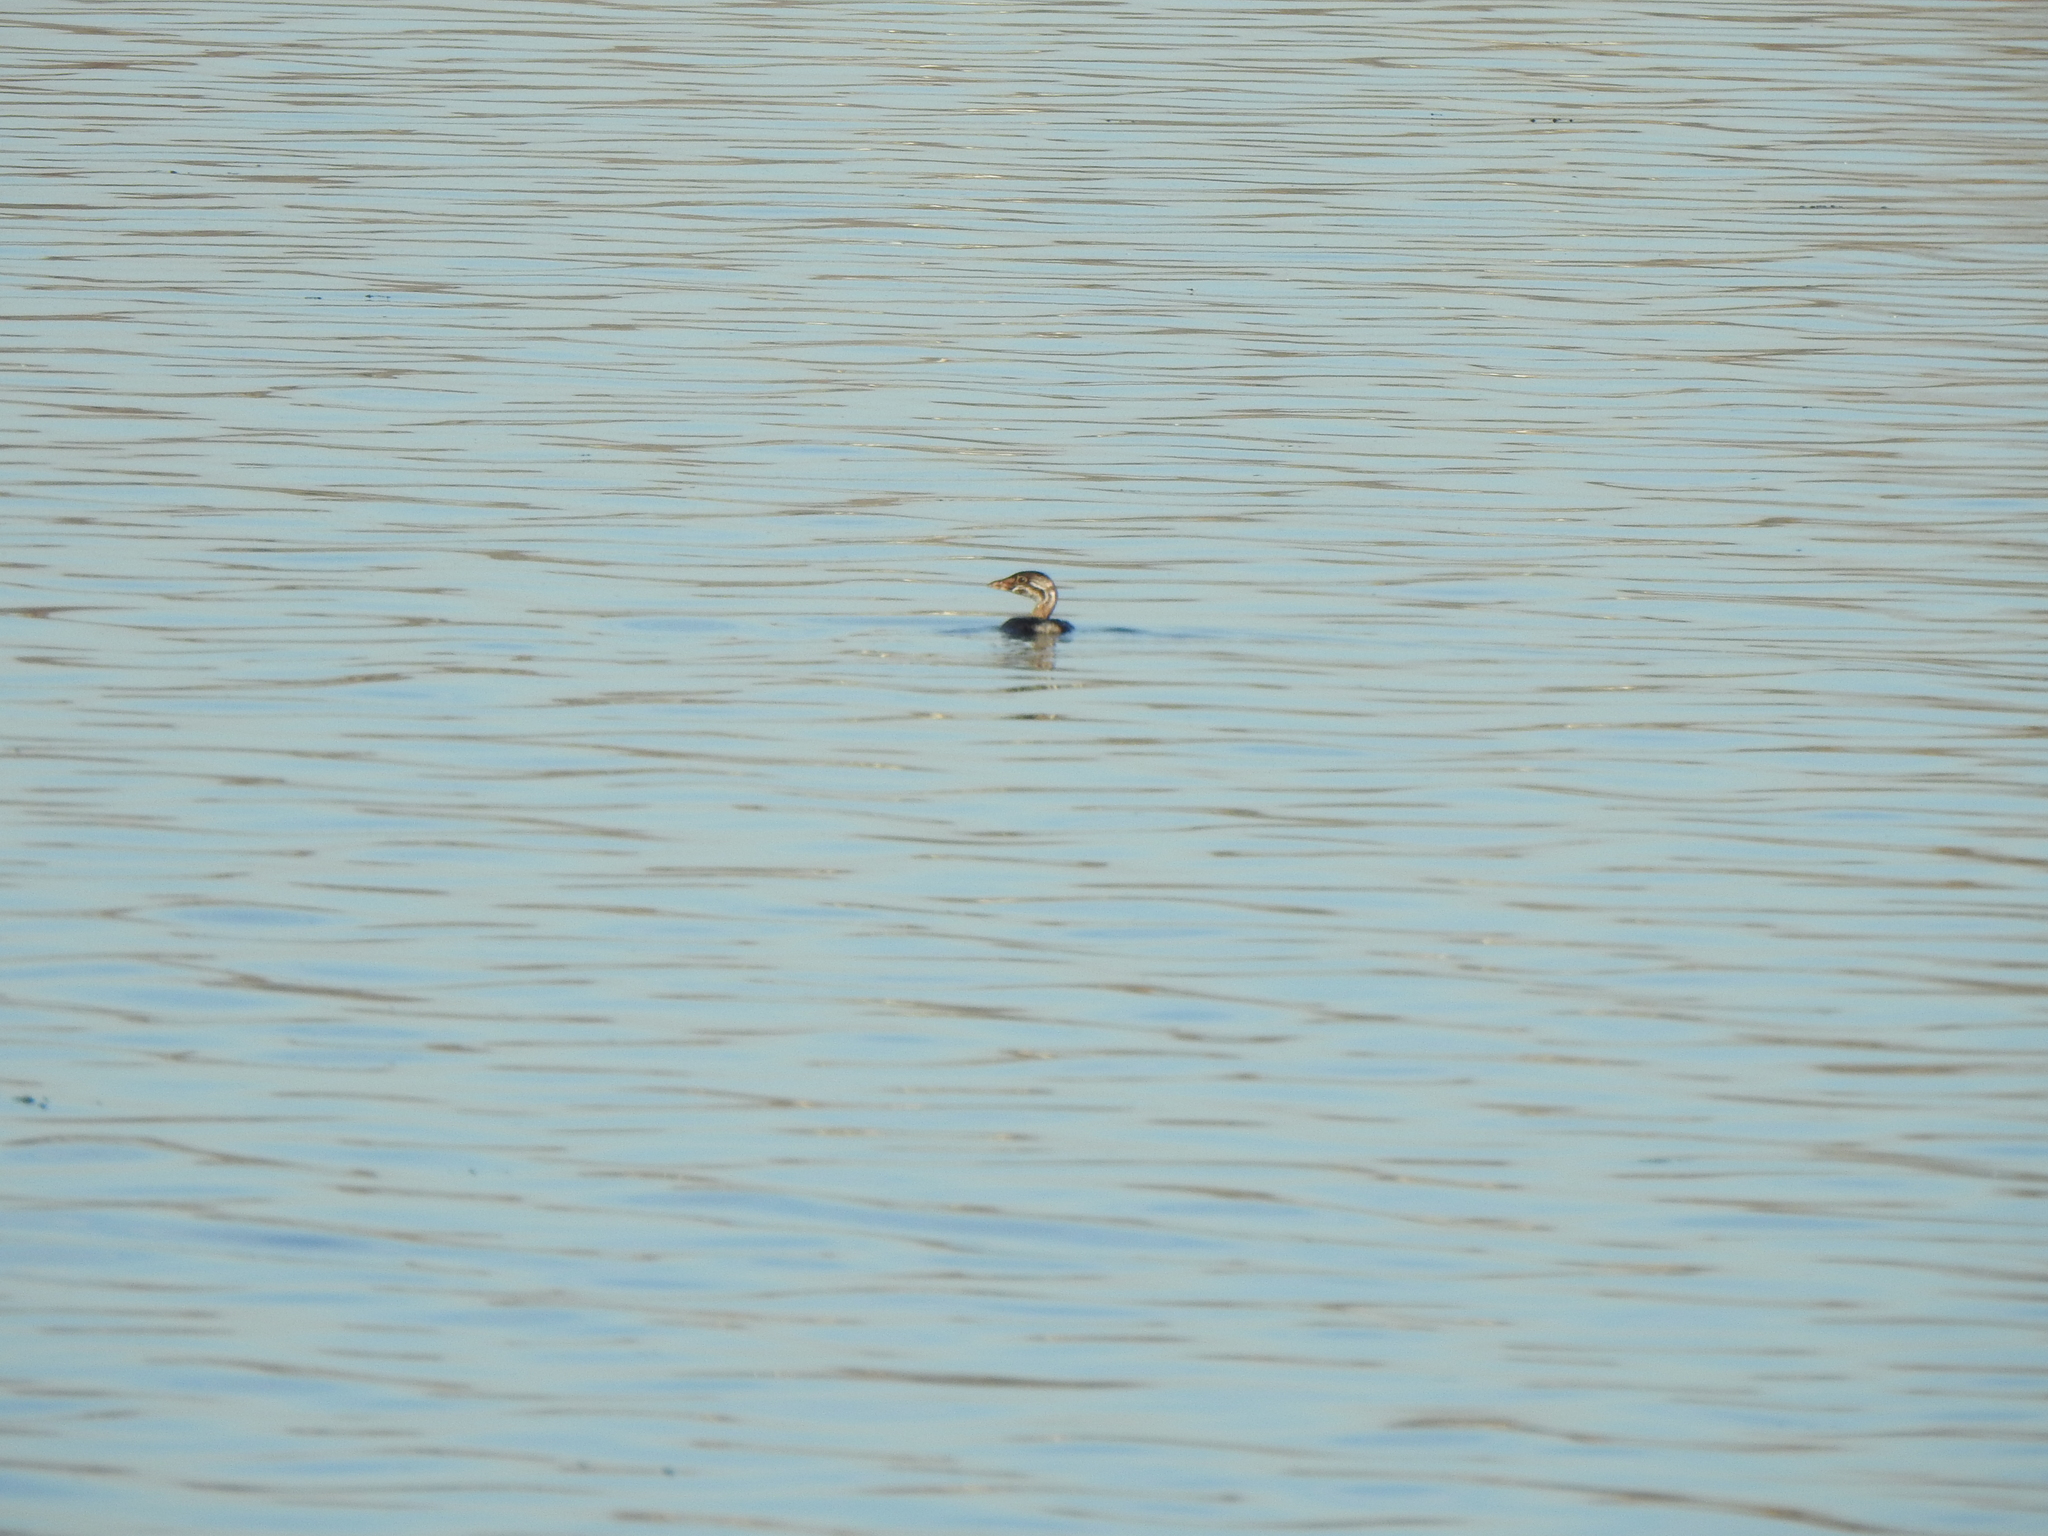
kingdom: Animalia
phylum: Chordata
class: Aves
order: Podicipediformes
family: Podicipedidae
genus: Podilymbus
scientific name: Podilymbus podiceps
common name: Pied-billed grebe
